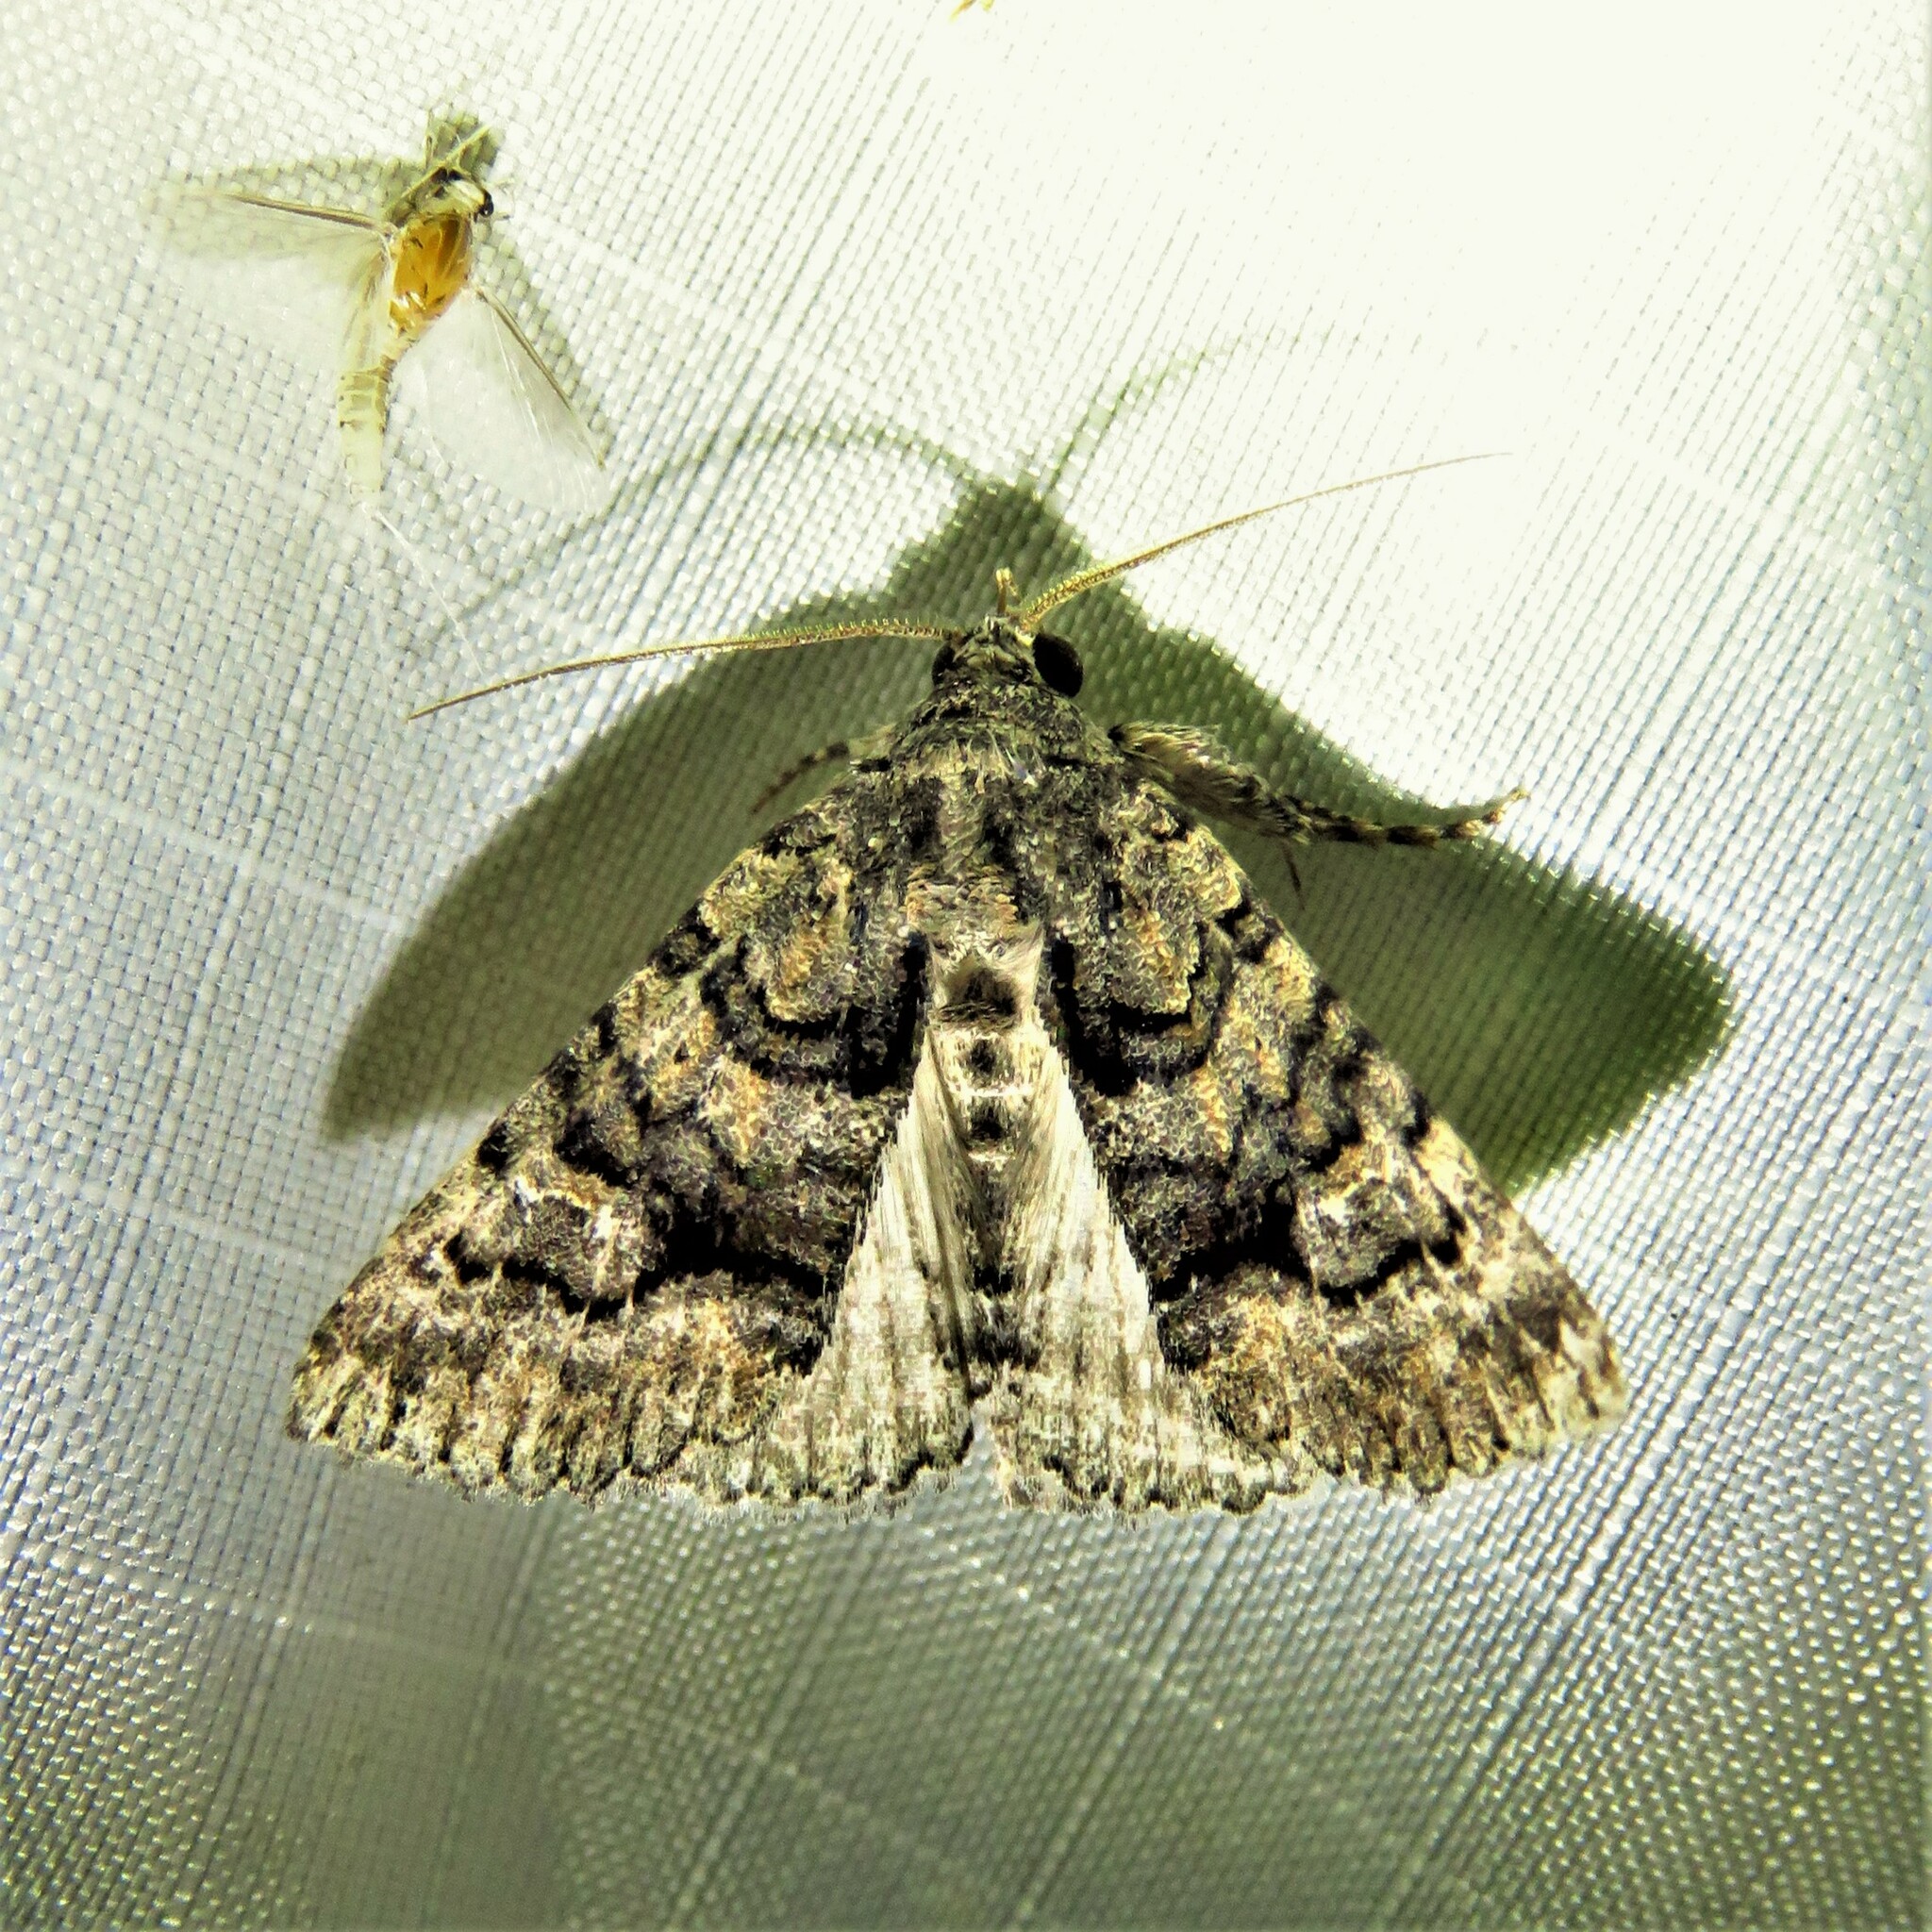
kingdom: Animalia
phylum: Arthropoda
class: Insecta
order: Lepidoptera
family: Erebidae
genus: Elousa
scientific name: Elousa mima
